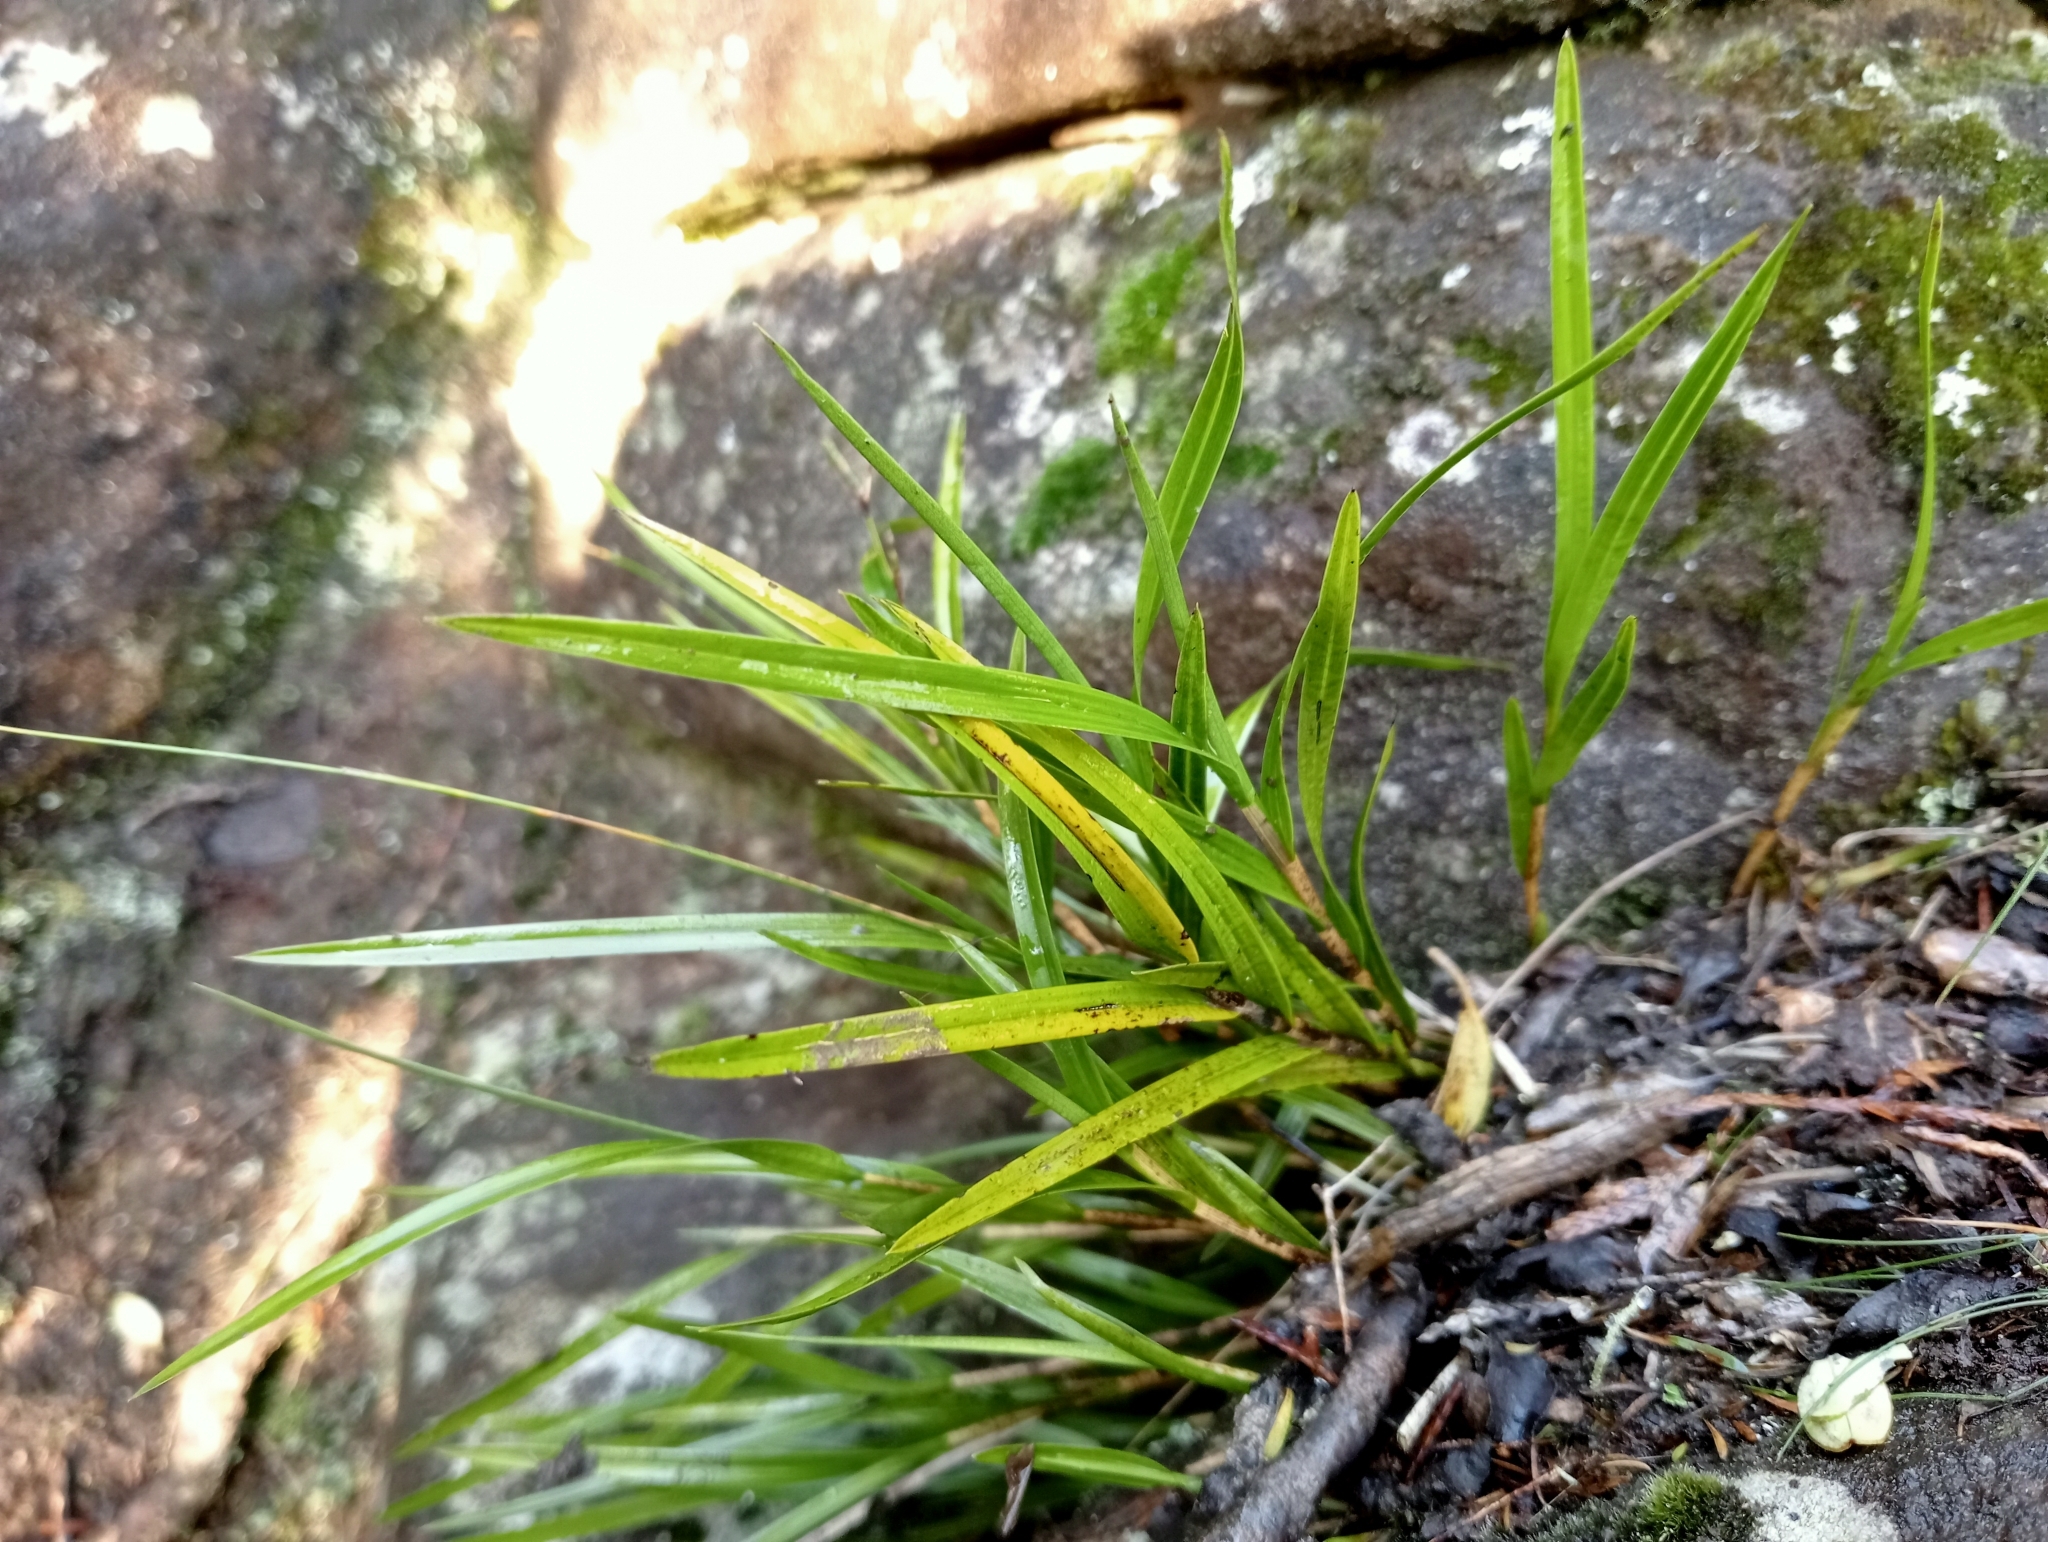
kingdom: Plantae
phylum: Tracheophyta
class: Liliopsida
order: Asparagales
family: Orchidaceae
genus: Earina
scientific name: Earina mucronata
